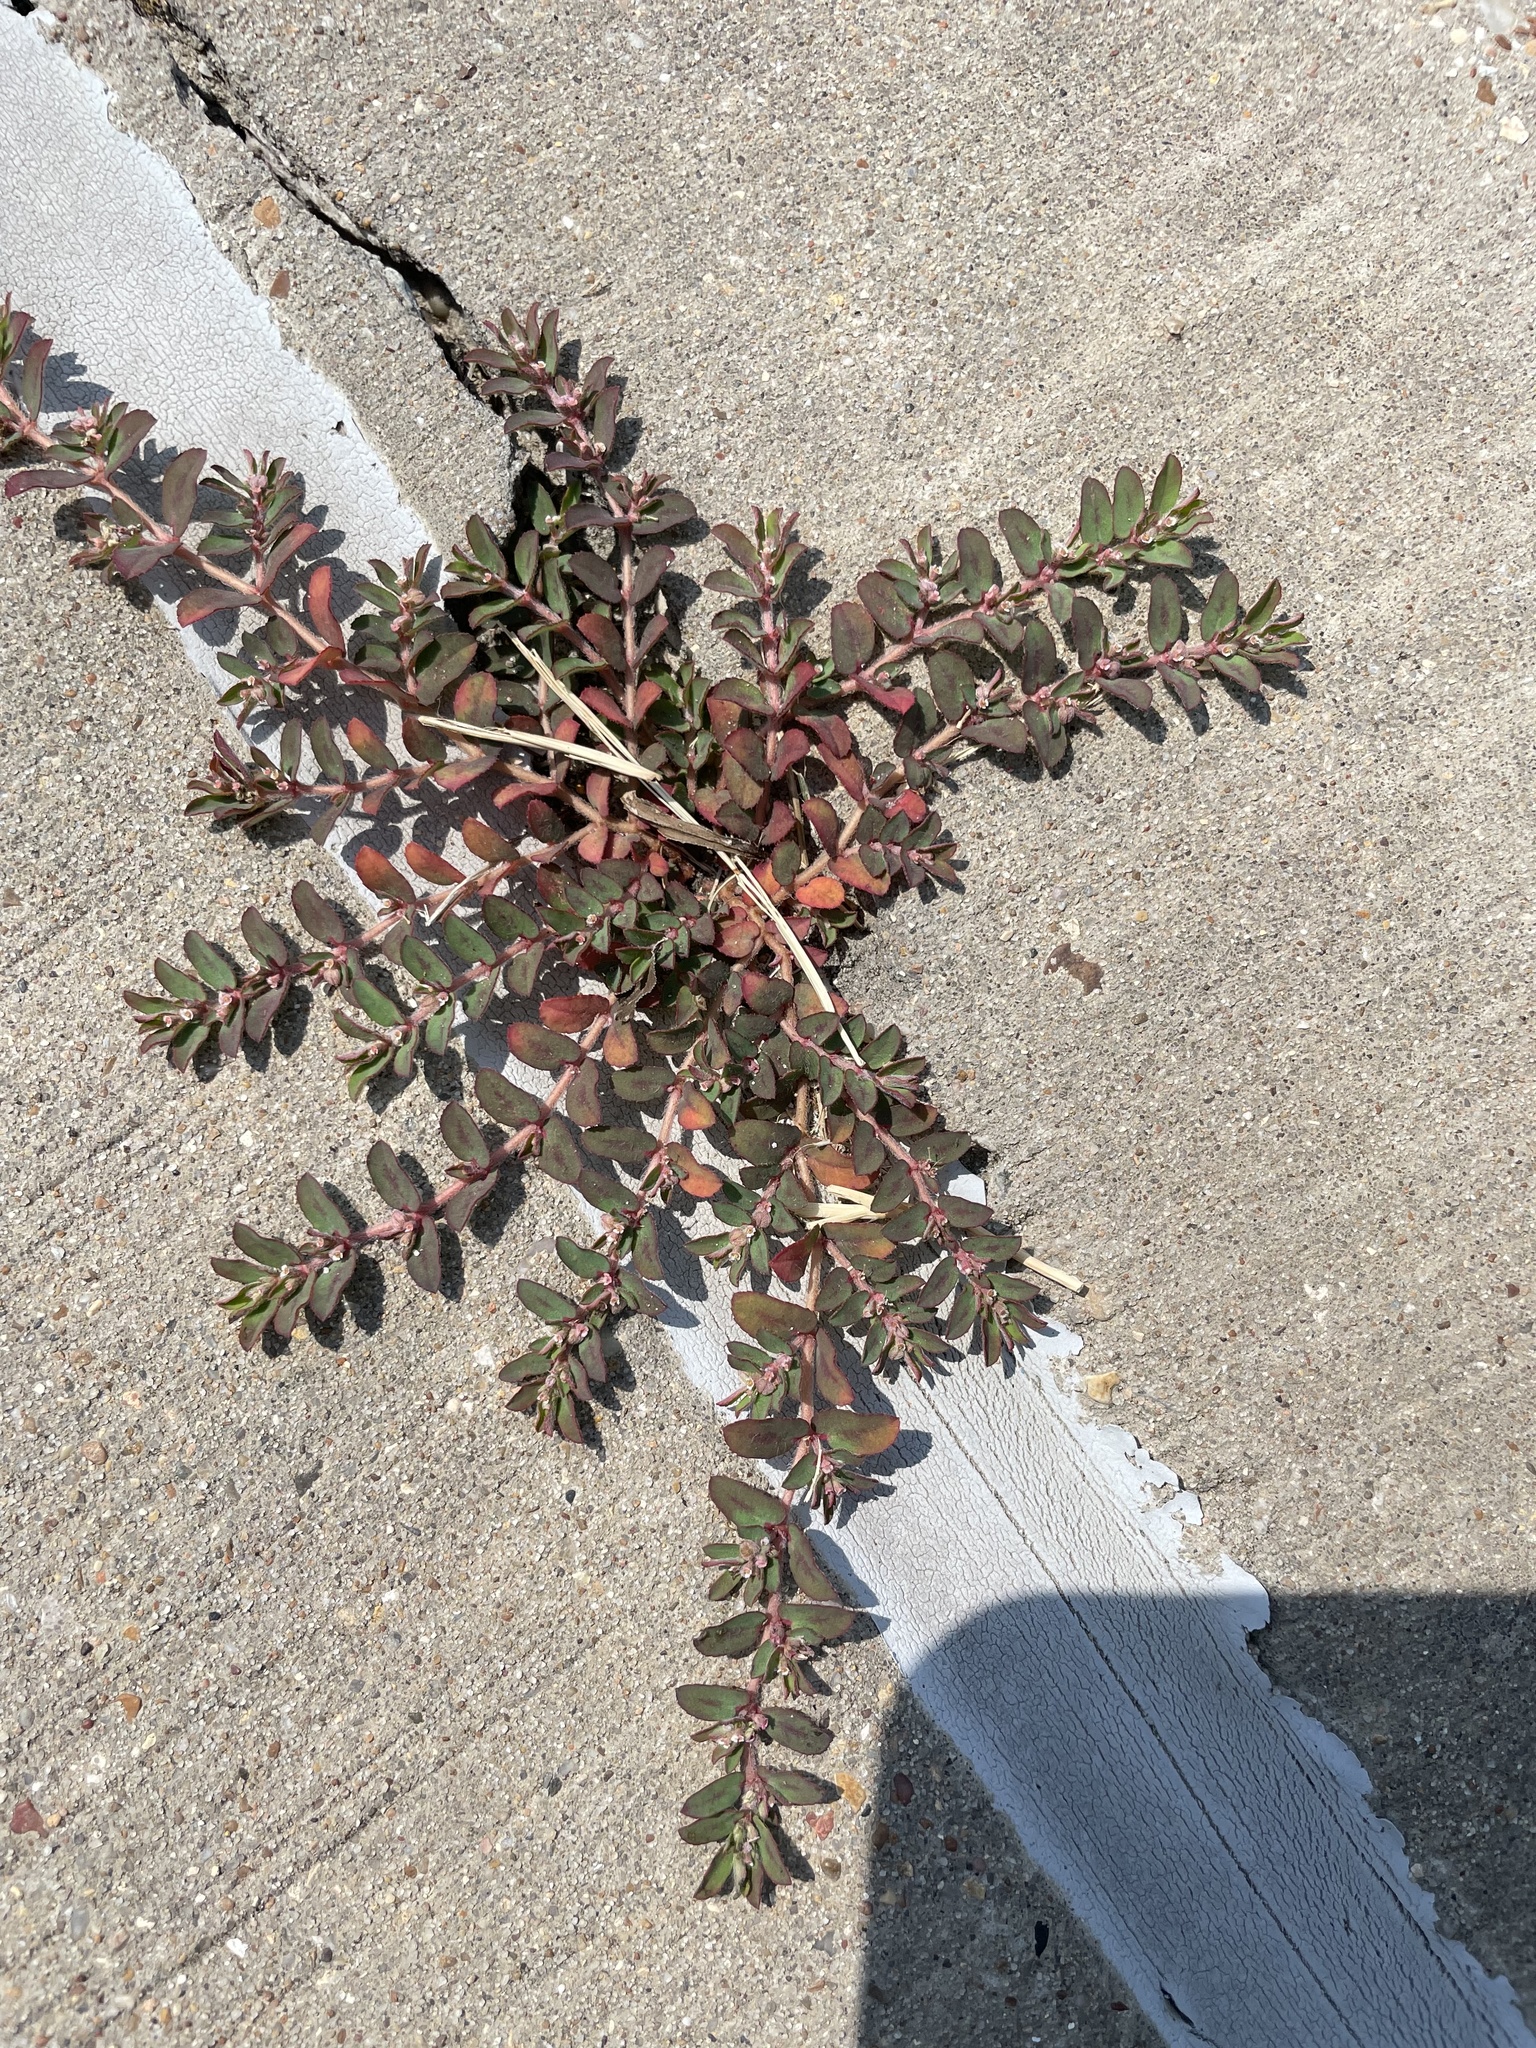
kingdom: Plantae
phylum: Tracheophyta
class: Magnoliopsida
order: Malpighiales
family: Euphorbiaceae
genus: Euphorbia
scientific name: Euphorbia maculata
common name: Spotted spurge
